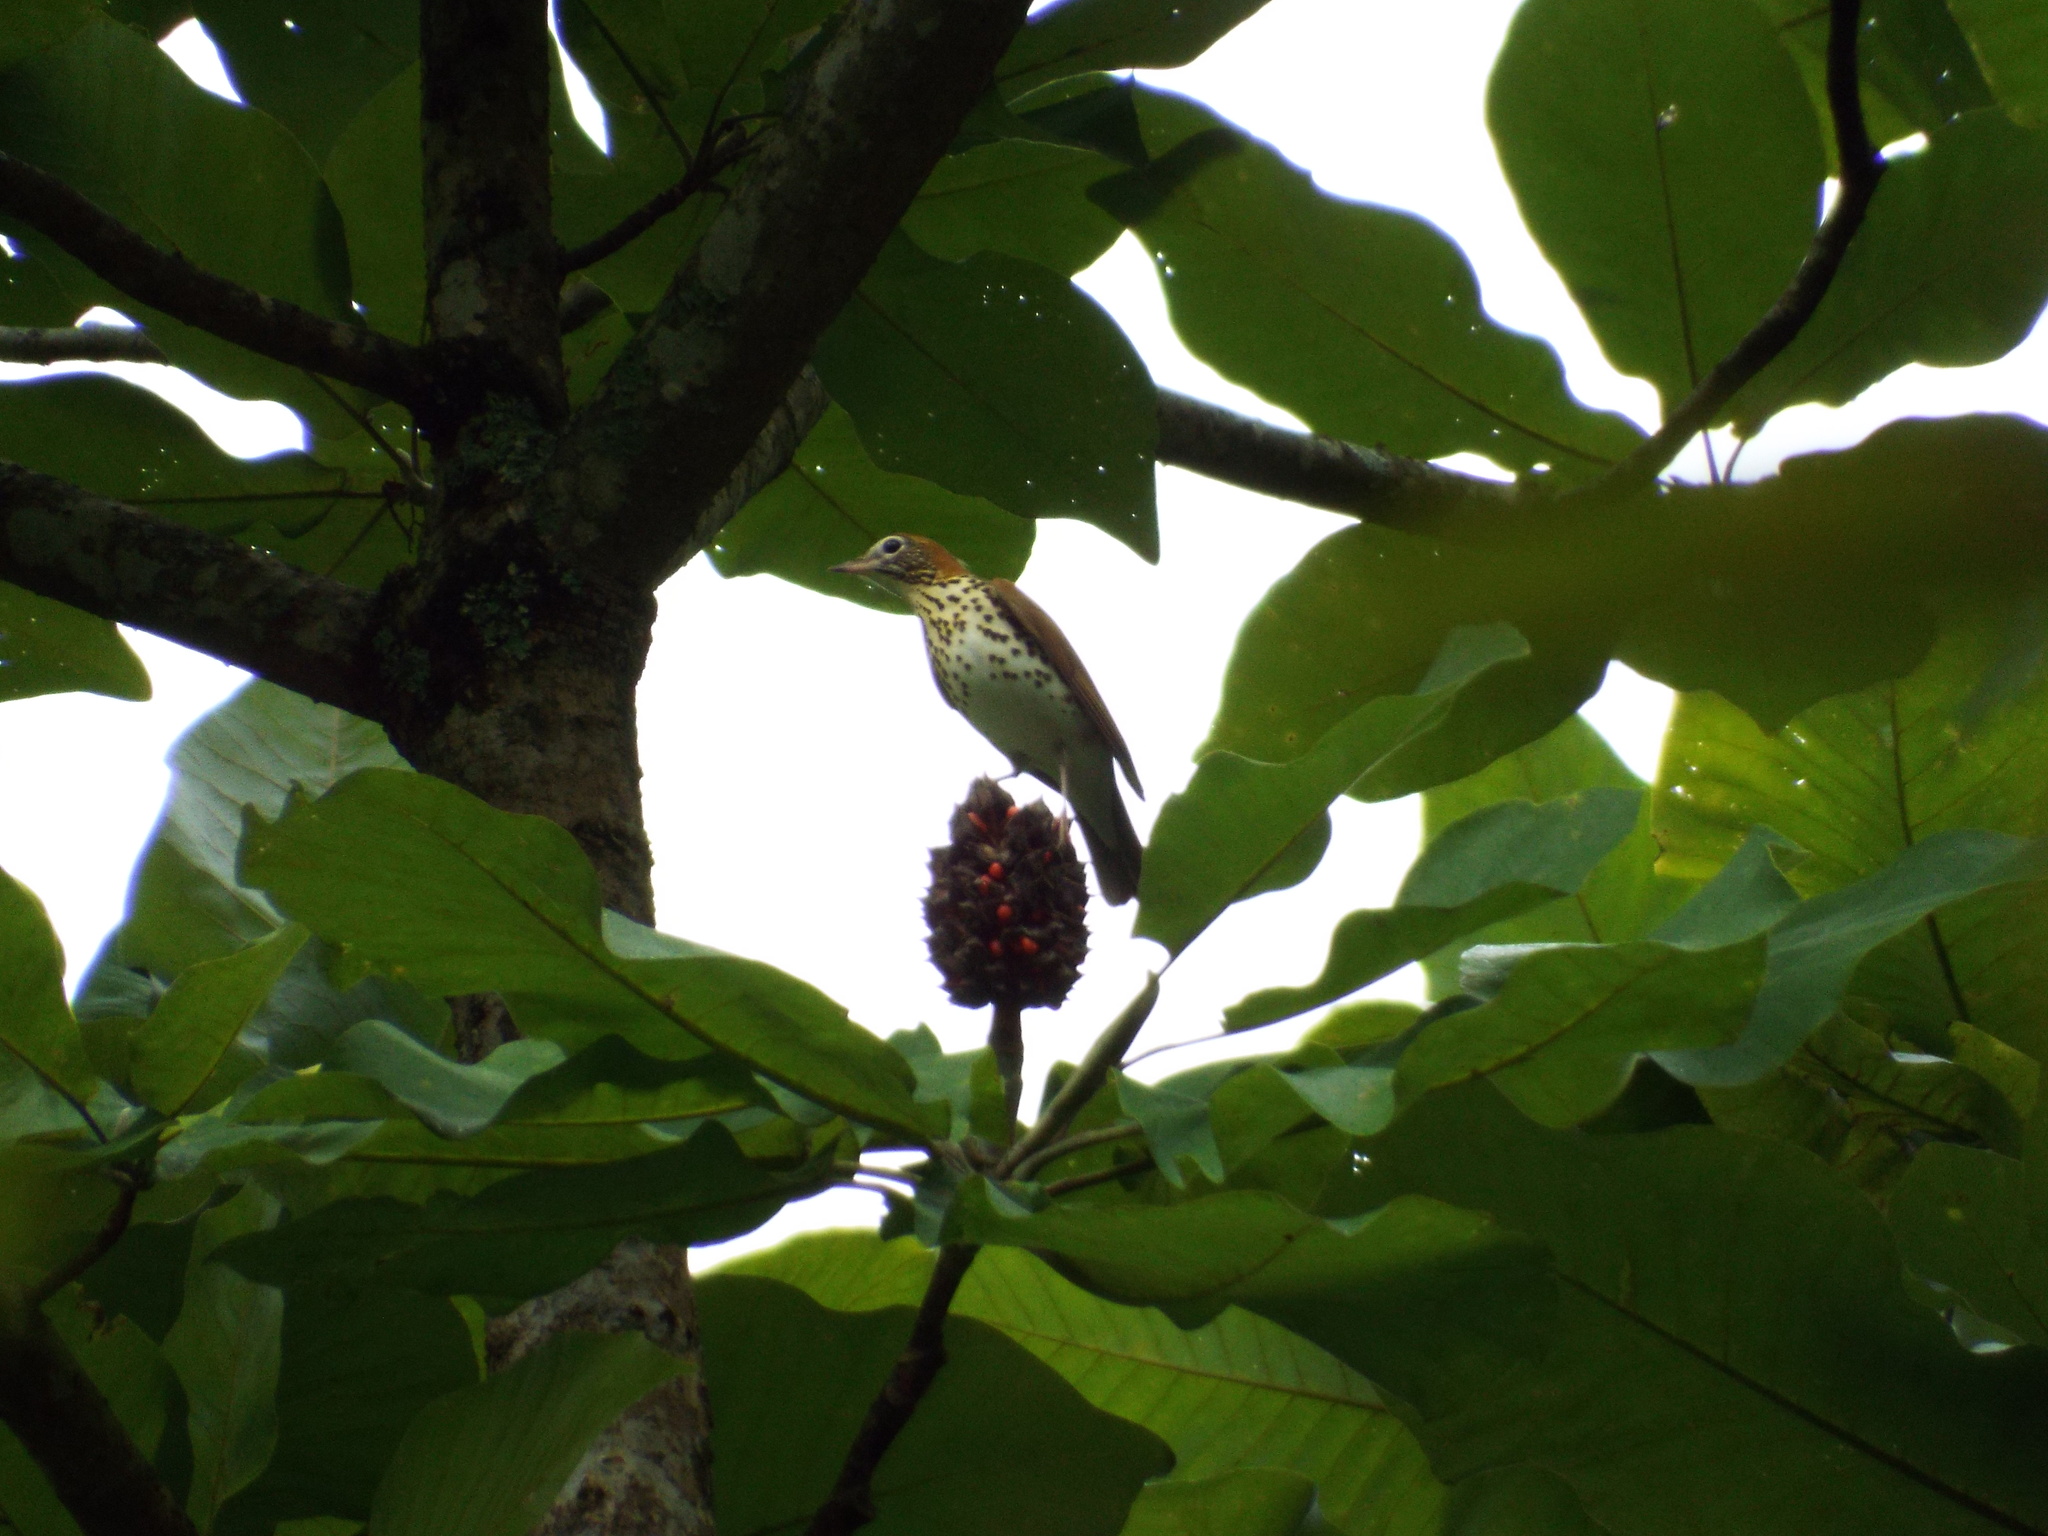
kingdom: Animalia
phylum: Chordata
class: Aves
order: Passeriformes
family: Turdidae
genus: Hylocichla
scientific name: Hylocichla mustelina
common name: Wood thrush
